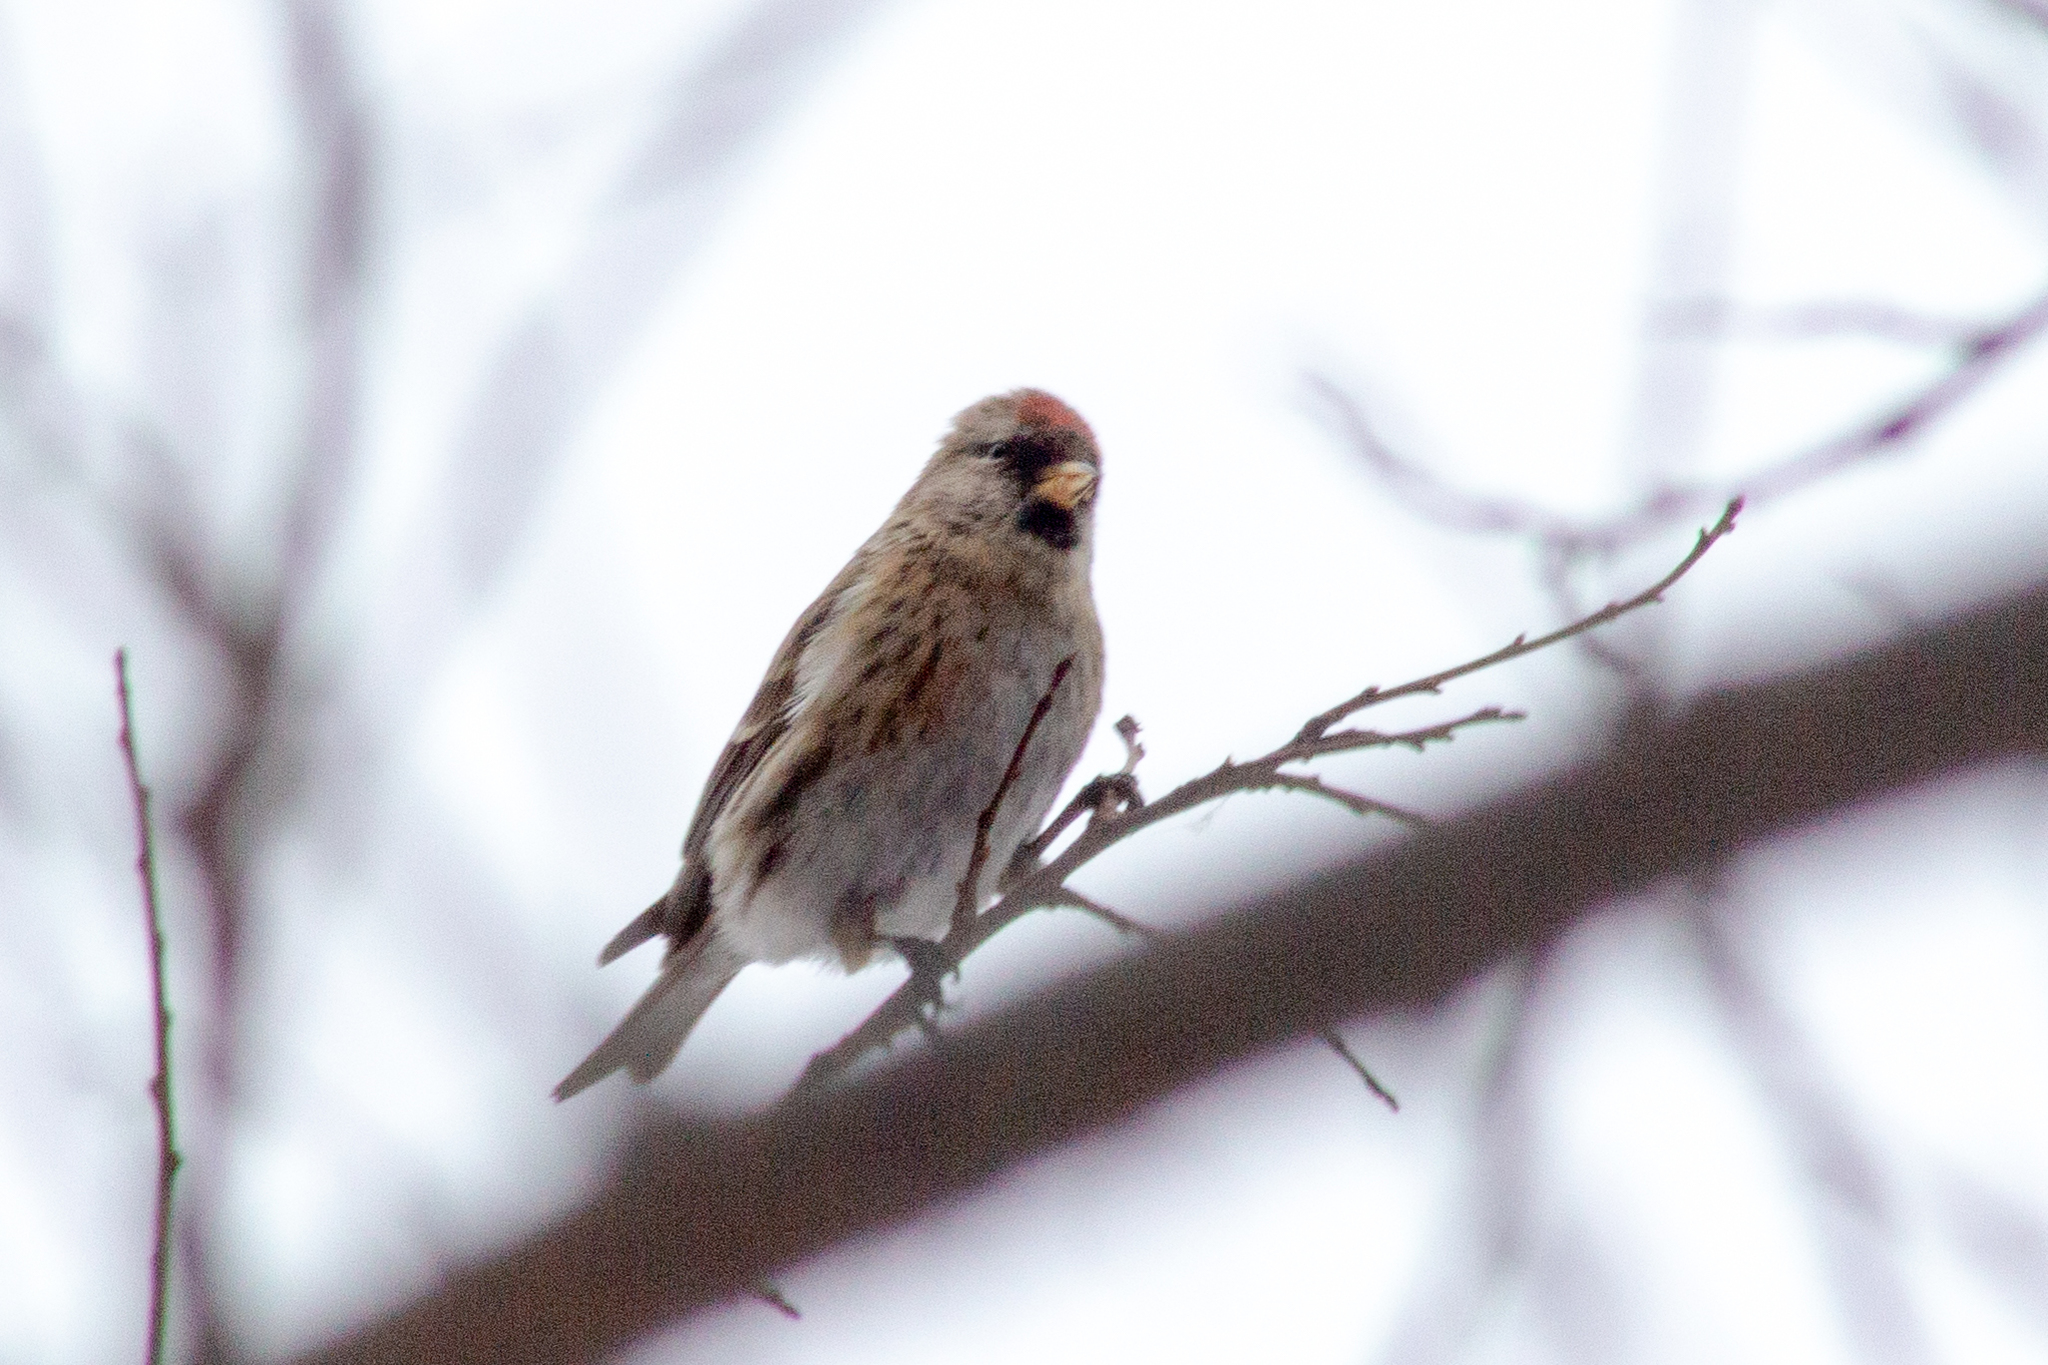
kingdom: Animalia
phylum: Chordata
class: Aves
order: Passeriformes
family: Fringillidae
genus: Acanthis
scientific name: Acanthis flammea
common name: Common redpoll
